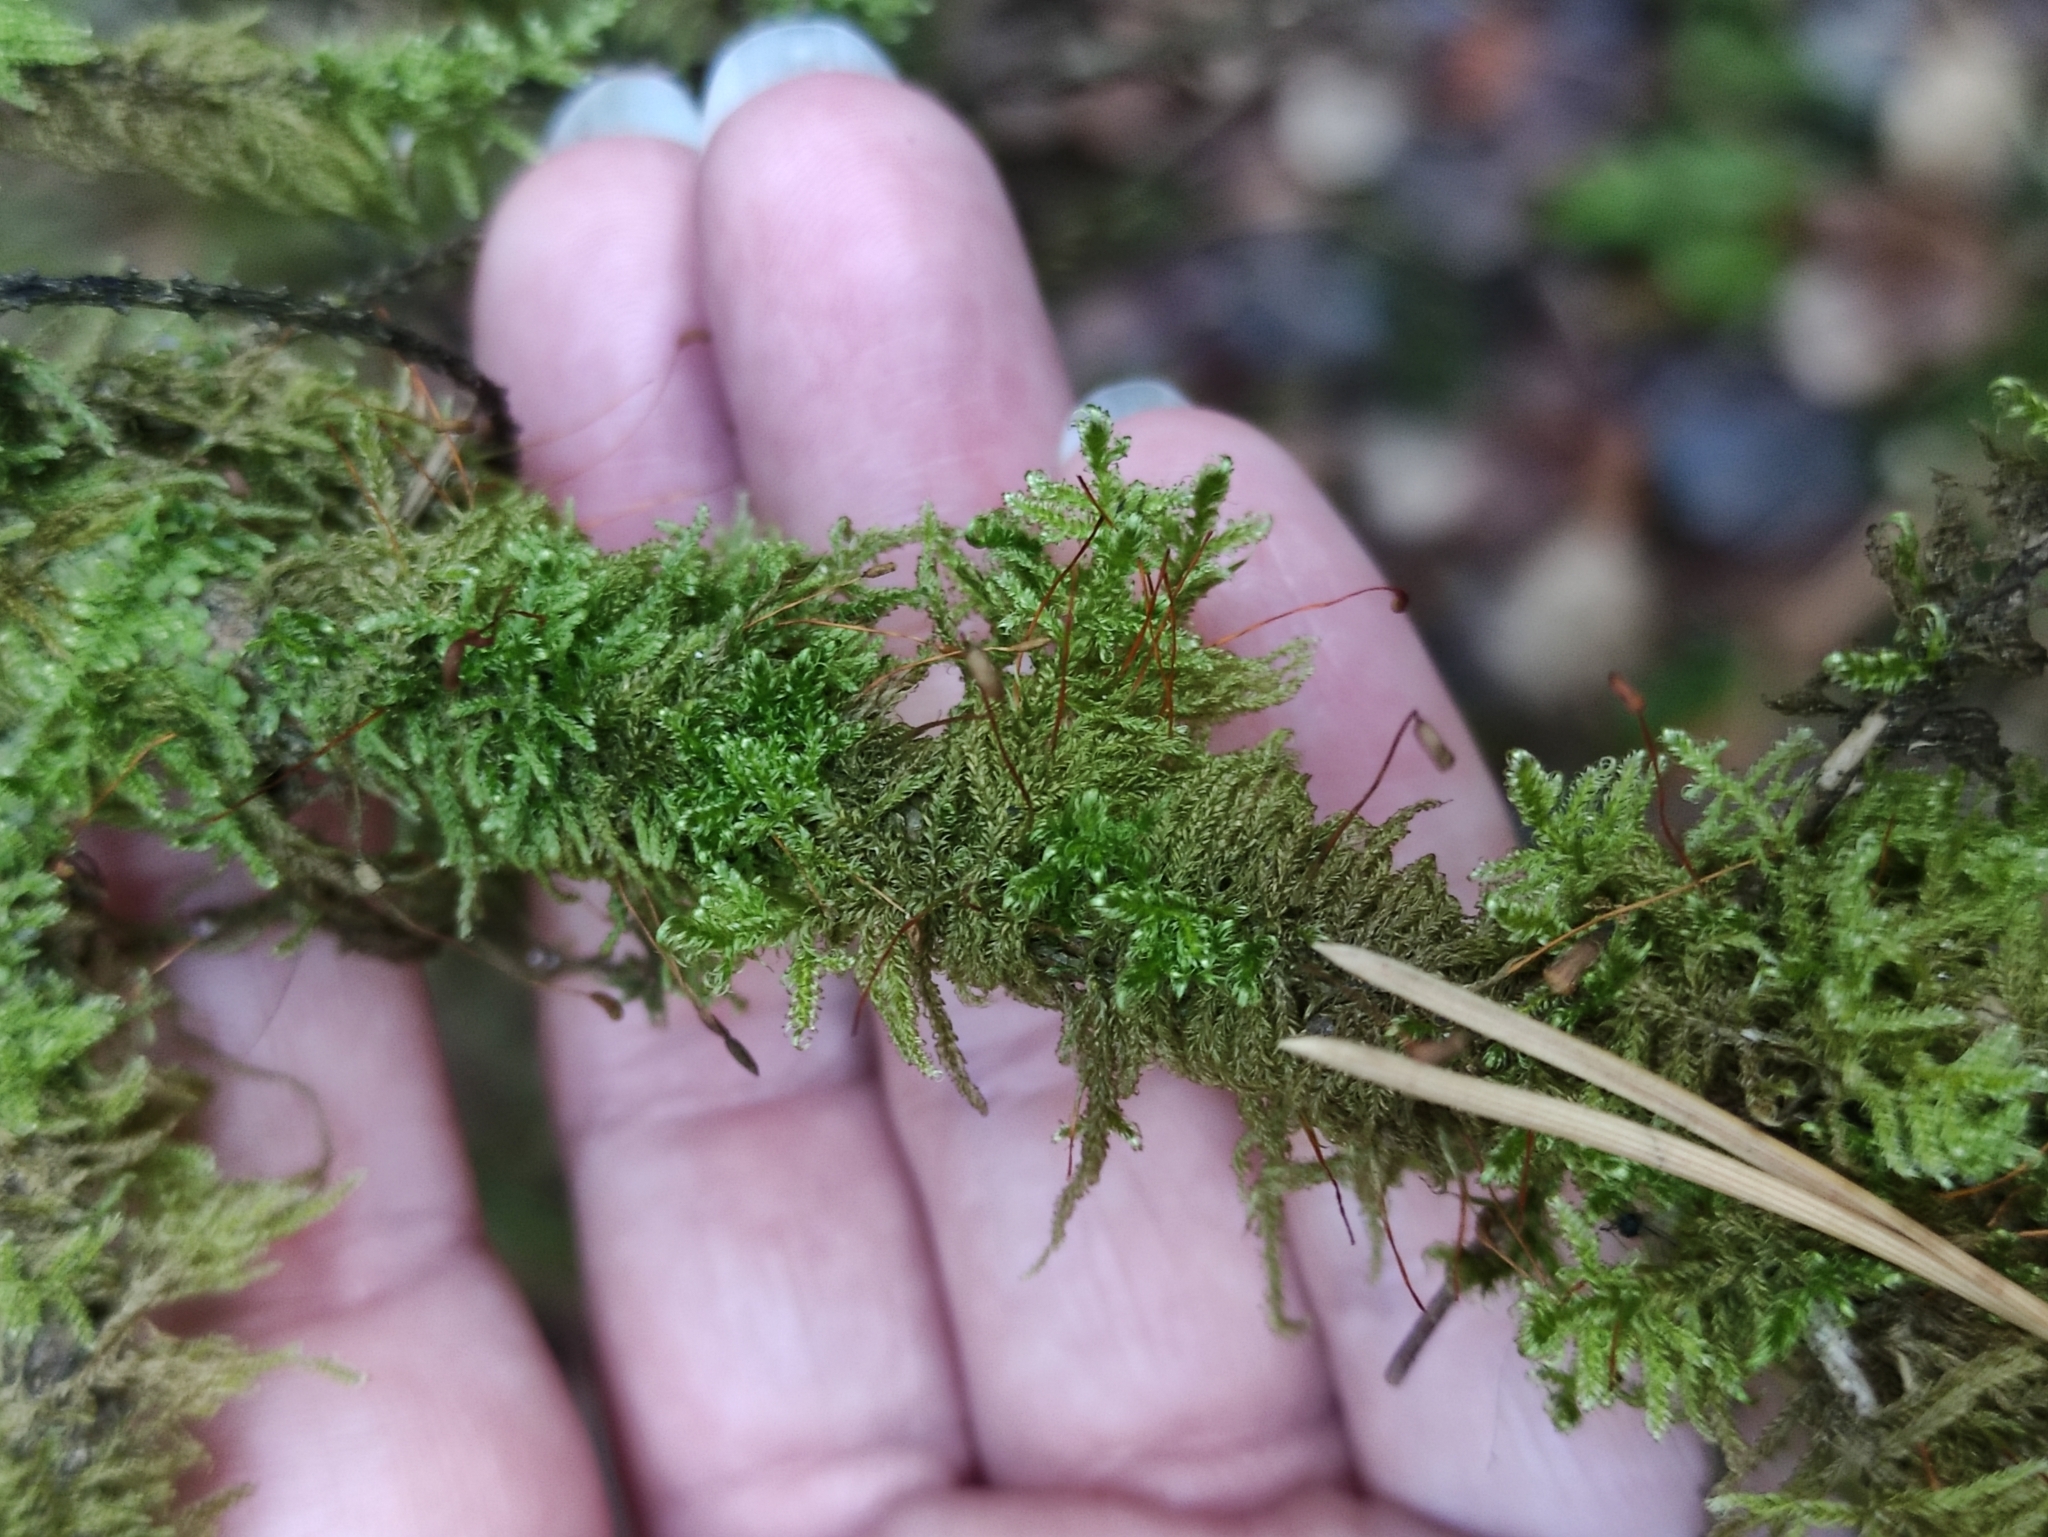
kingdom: Plantae
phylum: Bryophyta
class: Bryopsida
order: Hypnales
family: Scorpidiaceae
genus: Sanionia
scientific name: Sanionia uncinata
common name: Sickle moss
